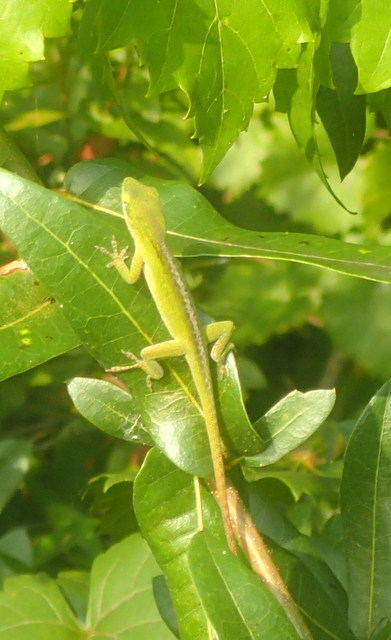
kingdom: Animalia
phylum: Chordata
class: Squamata
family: Dactyloidae
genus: Anolis
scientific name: Anolis carolinensis
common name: Green anole
